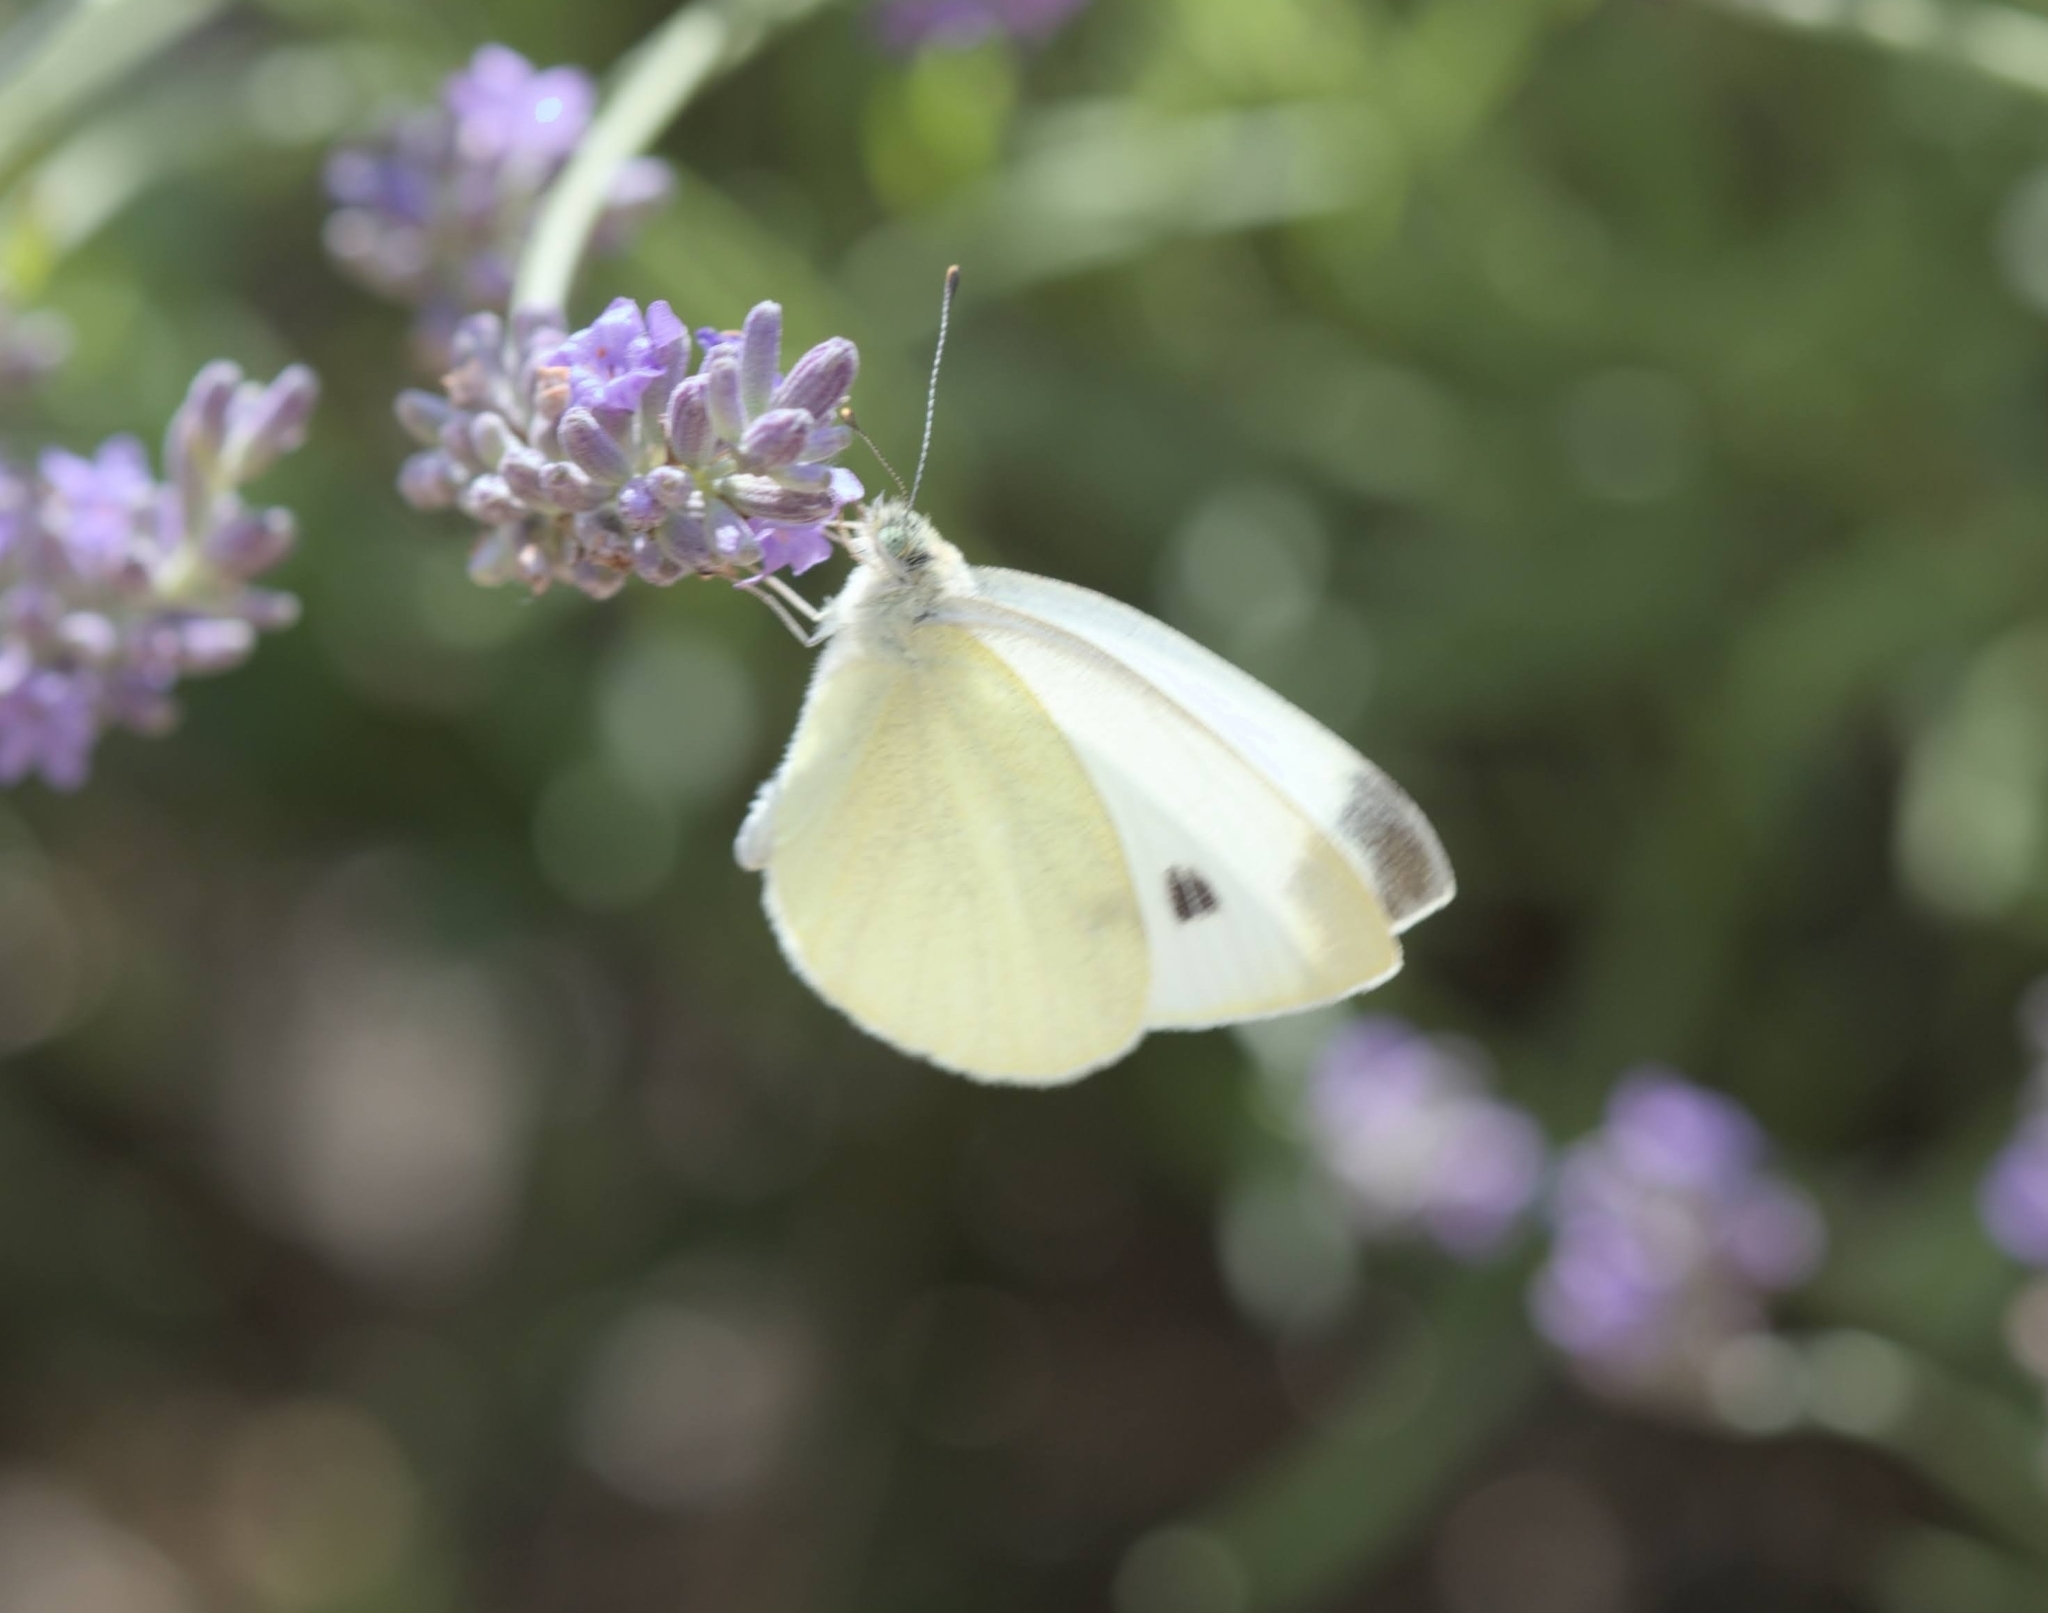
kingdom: Animalia
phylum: Arthropoda
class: Insecta
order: Lepidoptera
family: Pieridae
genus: Pieris
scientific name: Pieris rapae
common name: Small white
